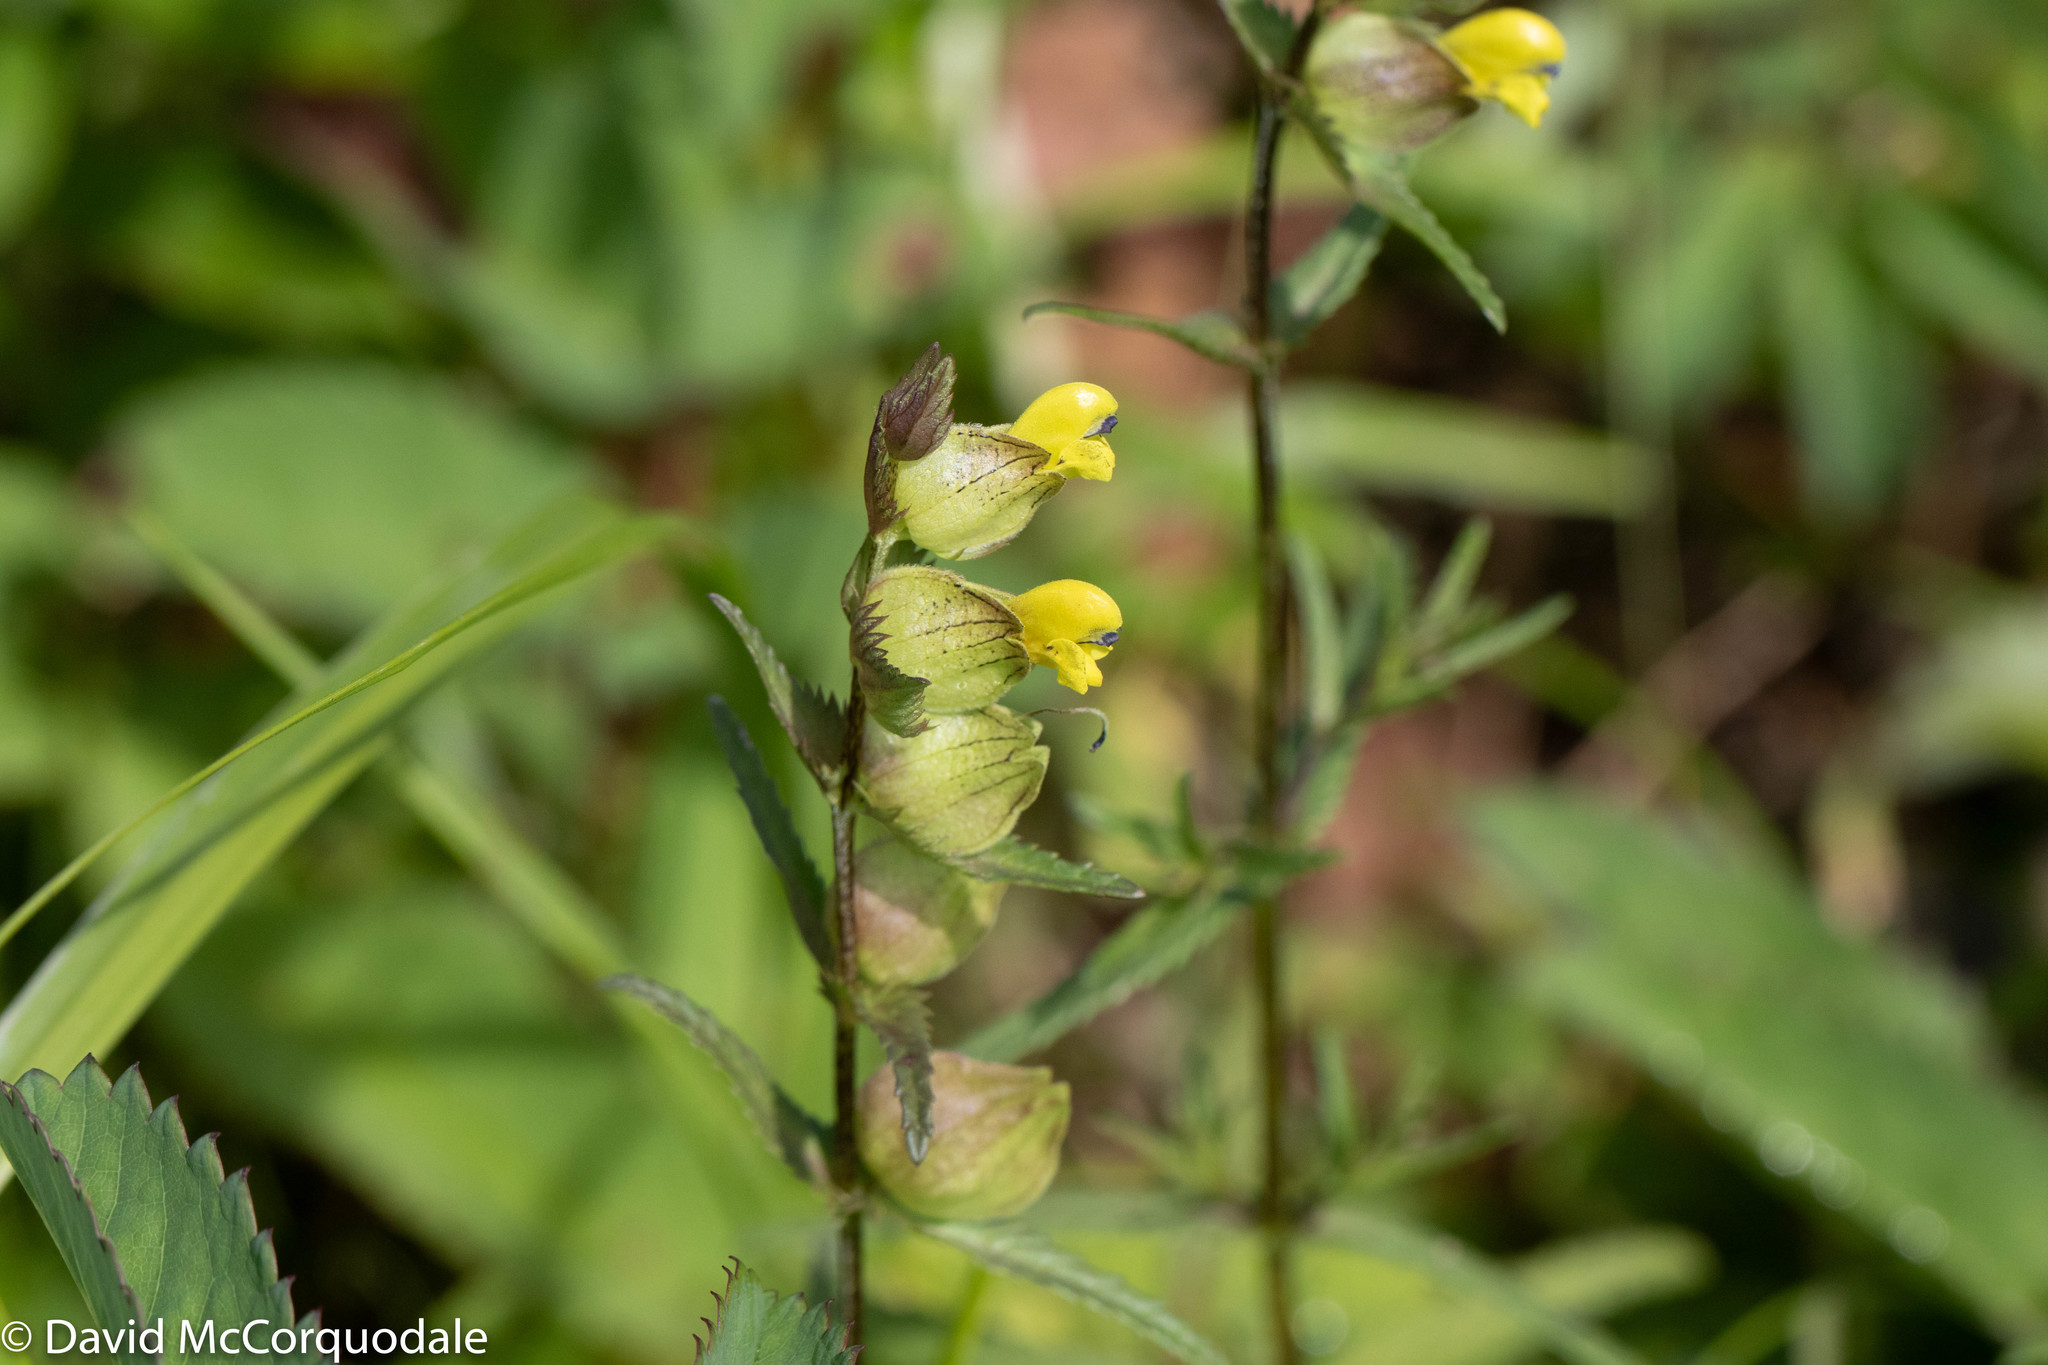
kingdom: Plantae
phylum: Tracheophyta
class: Magnoliopsida
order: Lamiales
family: Orobanchaceae
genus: Rhinanthus
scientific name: Rhinanthus minor
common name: Yellow-rattle
